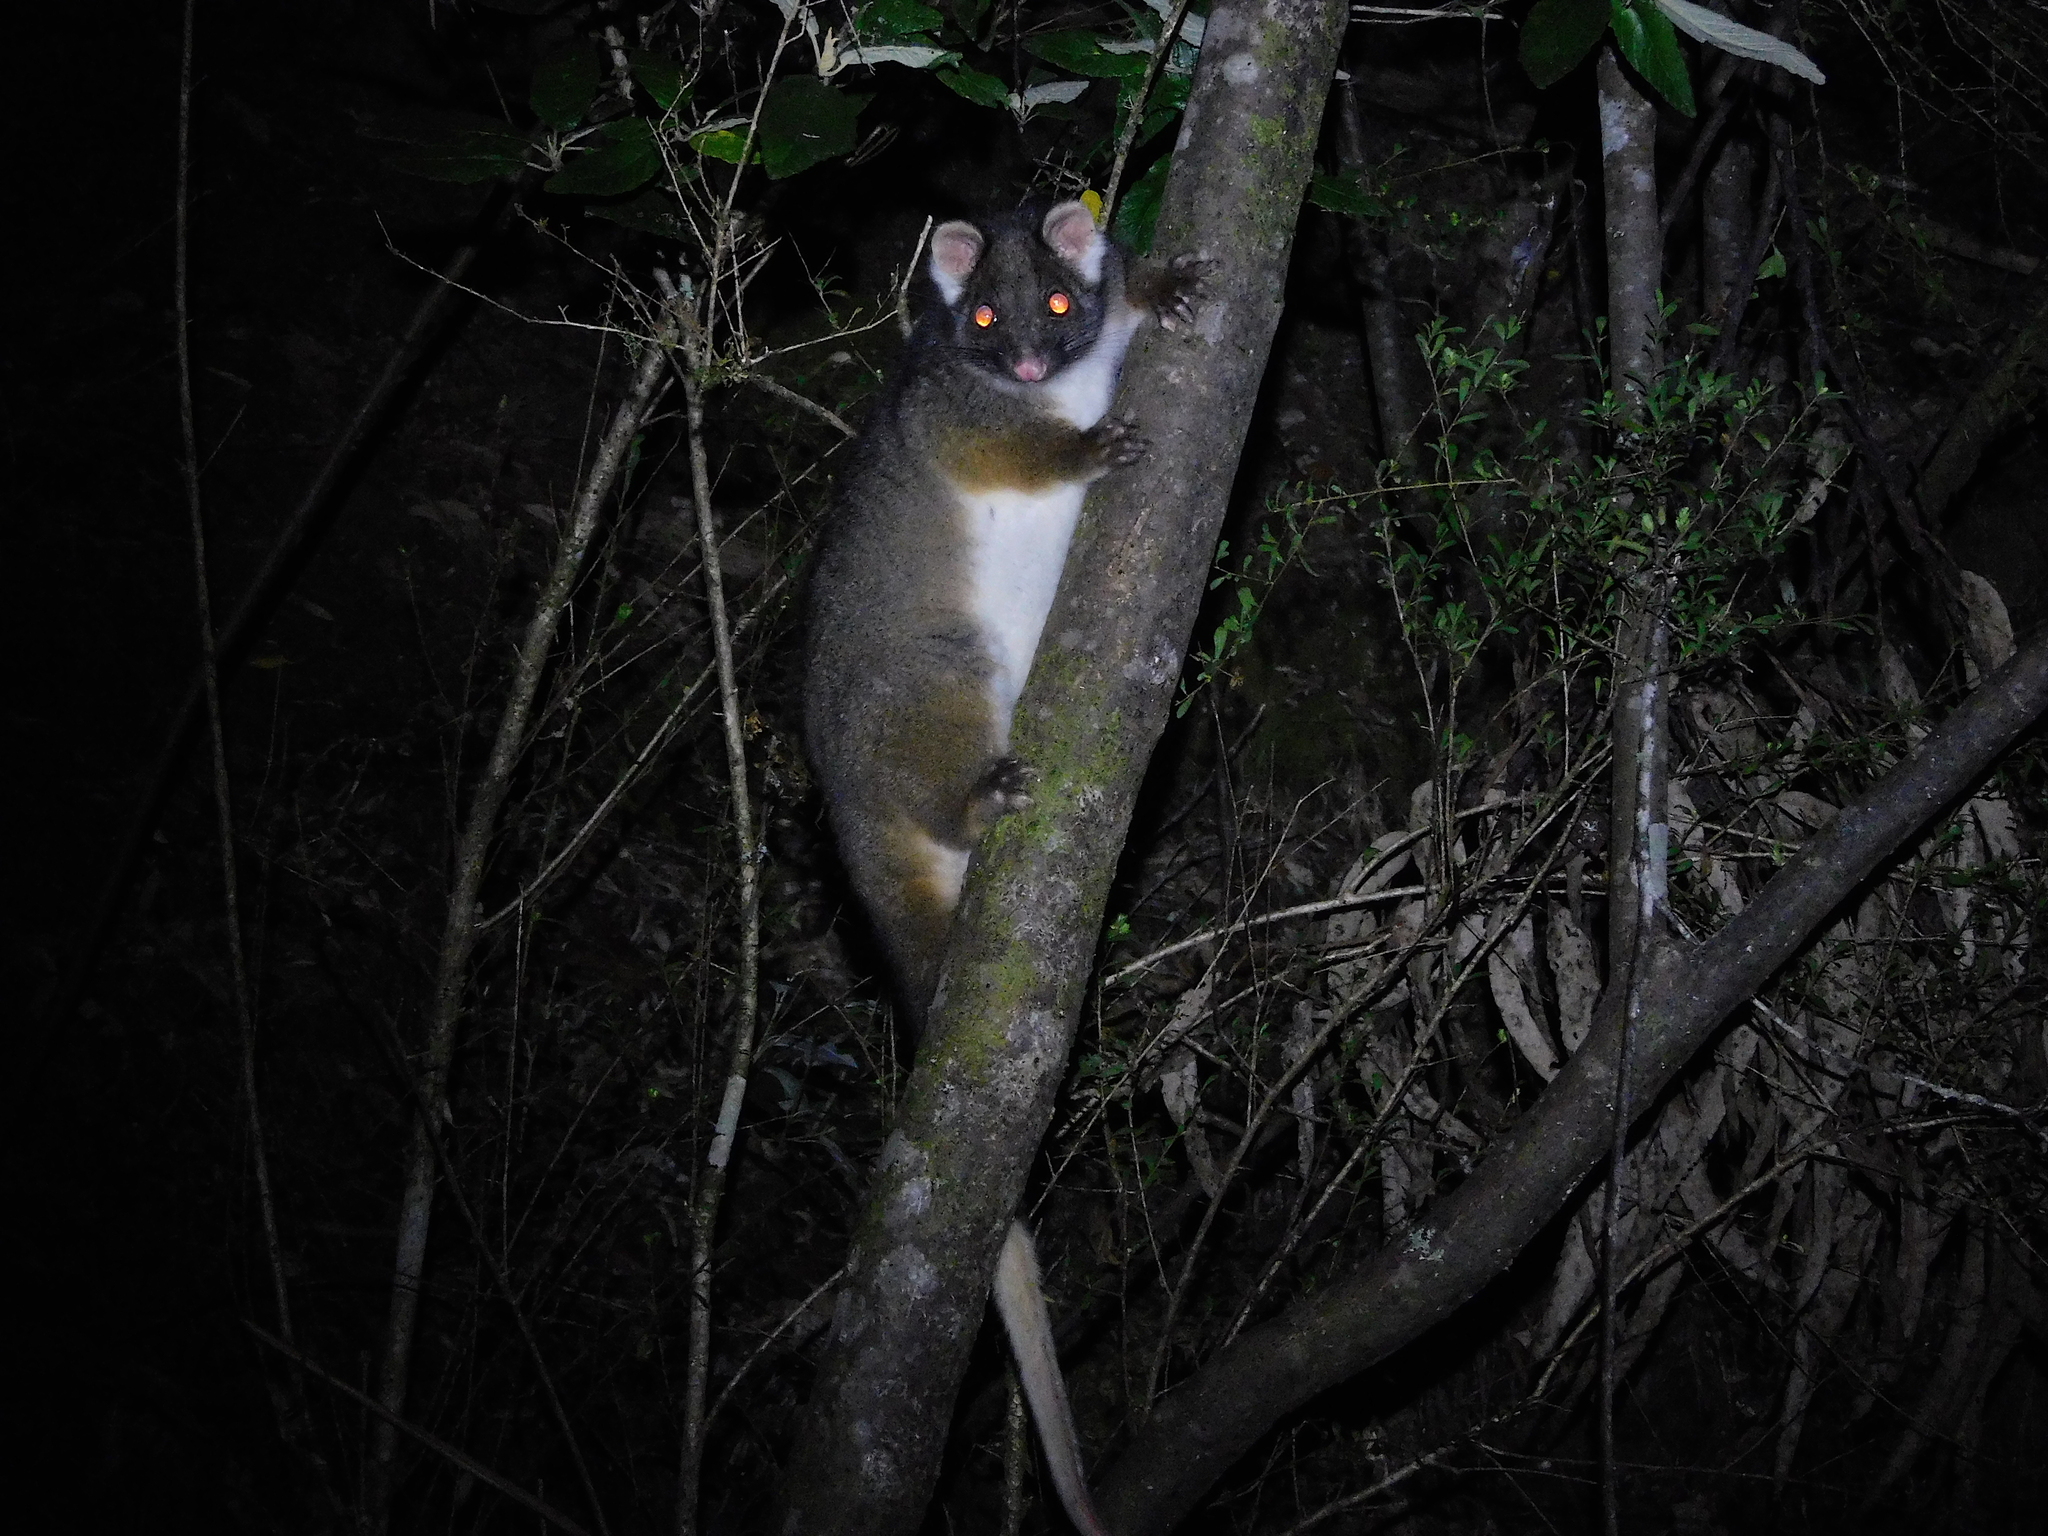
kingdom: Animalia
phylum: Chordata
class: Mammalia
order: Diprotodontia
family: Pseudocheiridae
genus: Pseudocheirus
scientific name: Pseudocheirus peregrinus
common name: Common ringtail possum
